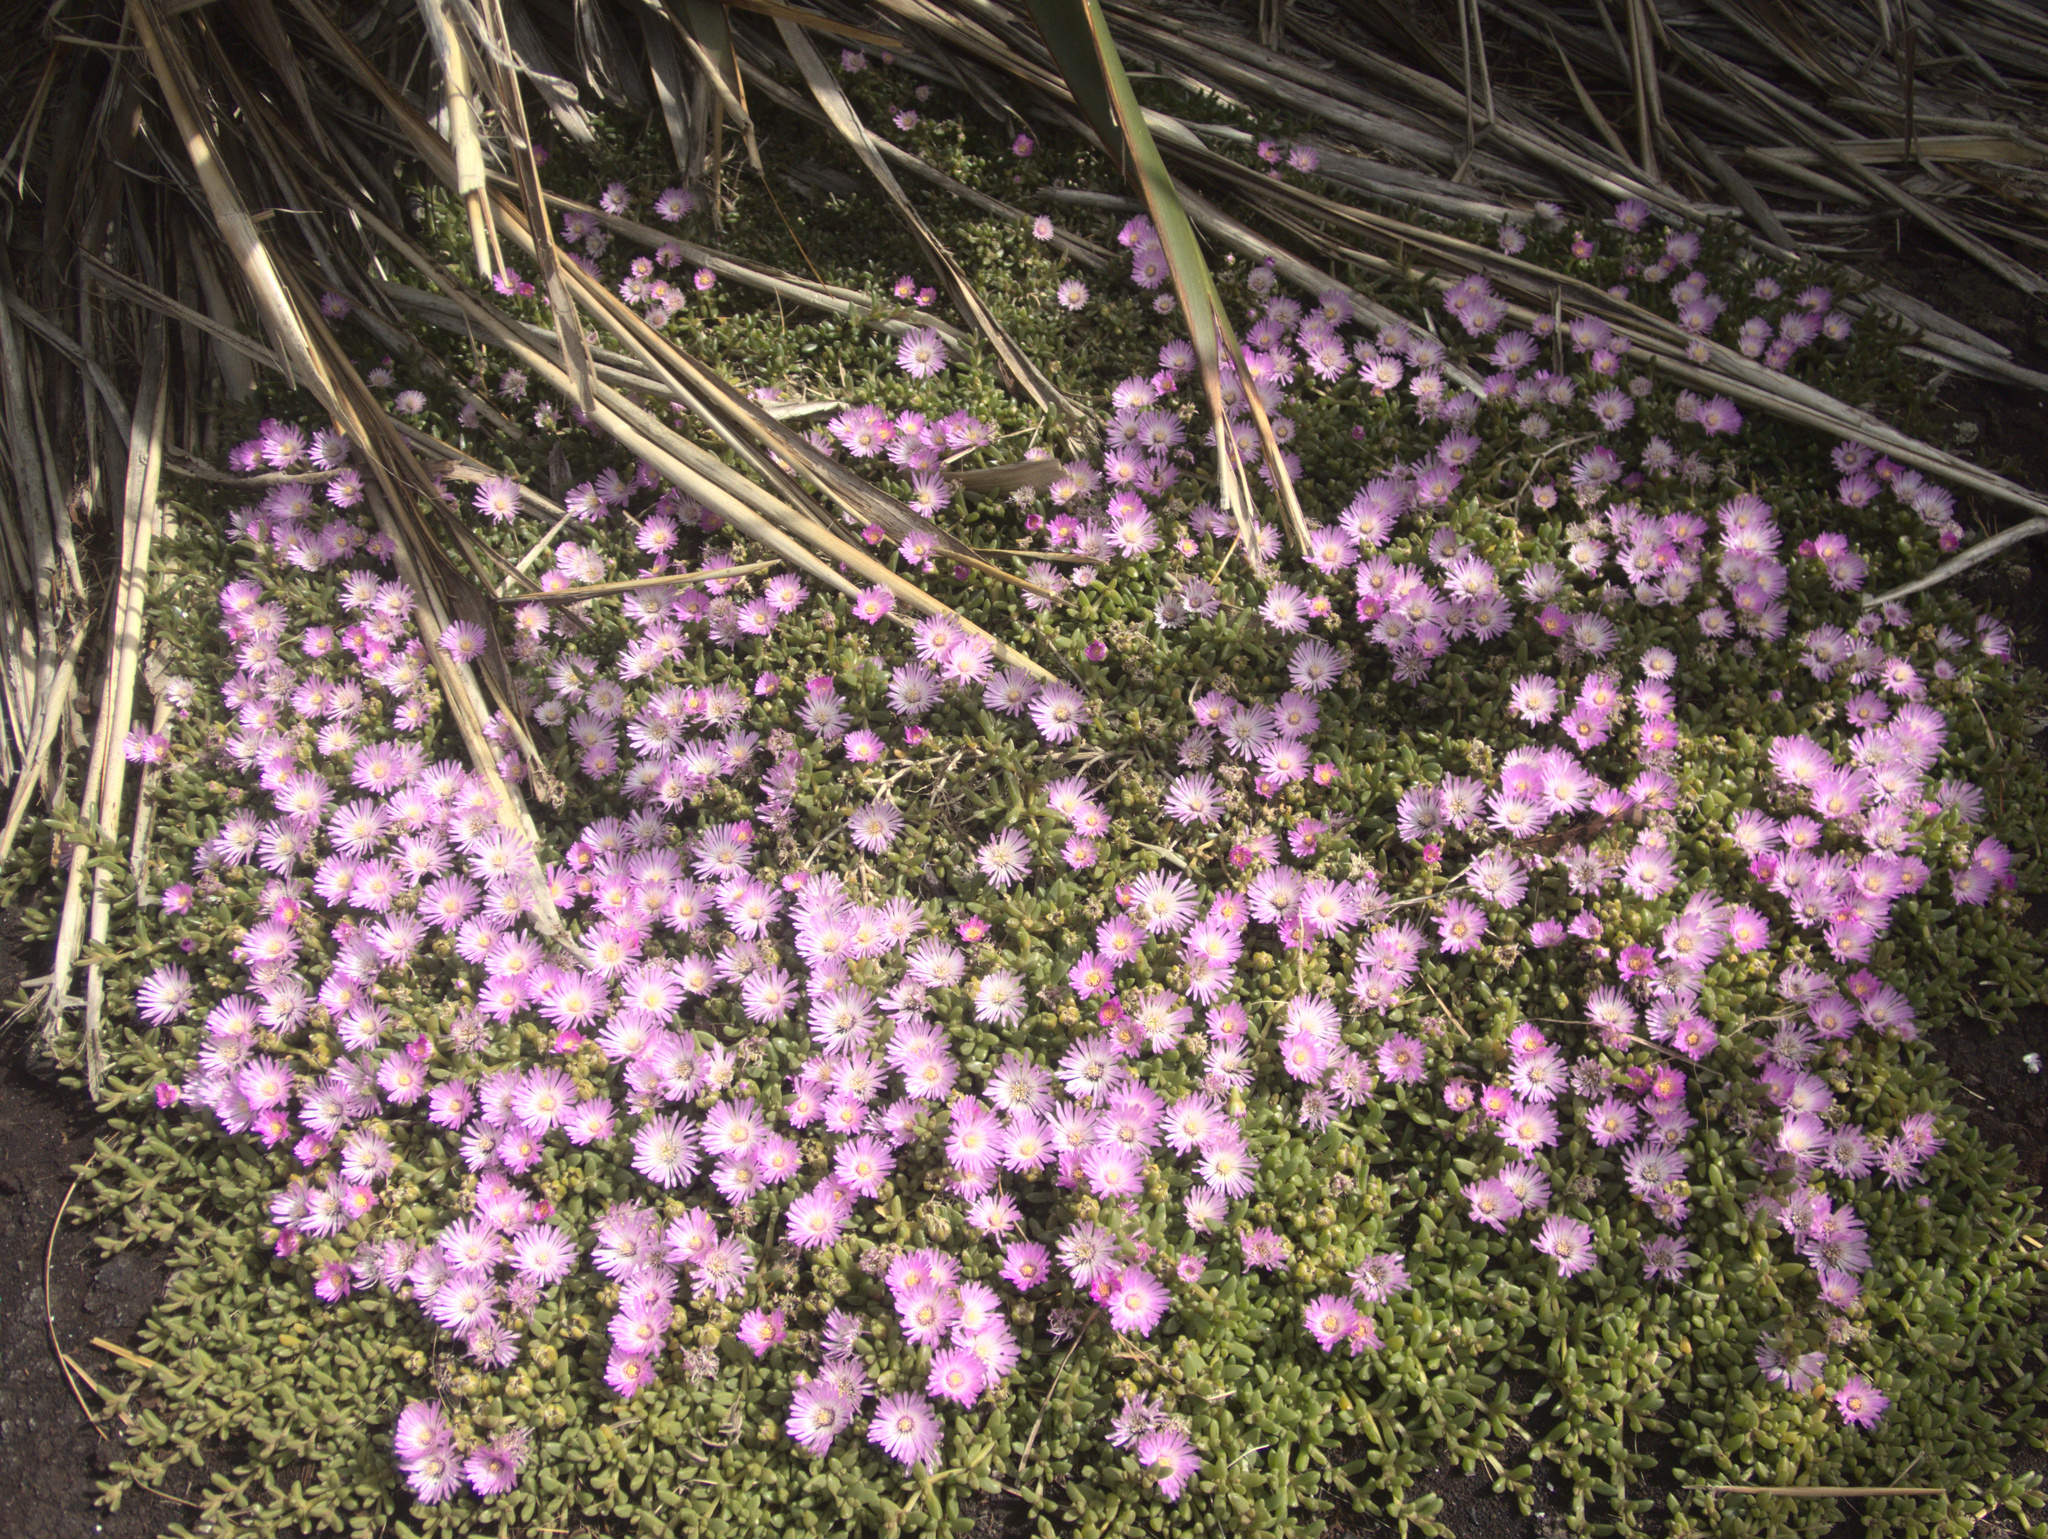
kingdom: Plantae
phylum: Tracheophyta
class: Magnoliopsida
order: Caryophyllales
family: Aizoaceae
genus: Disphyma
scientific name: Disphyma papillatum
